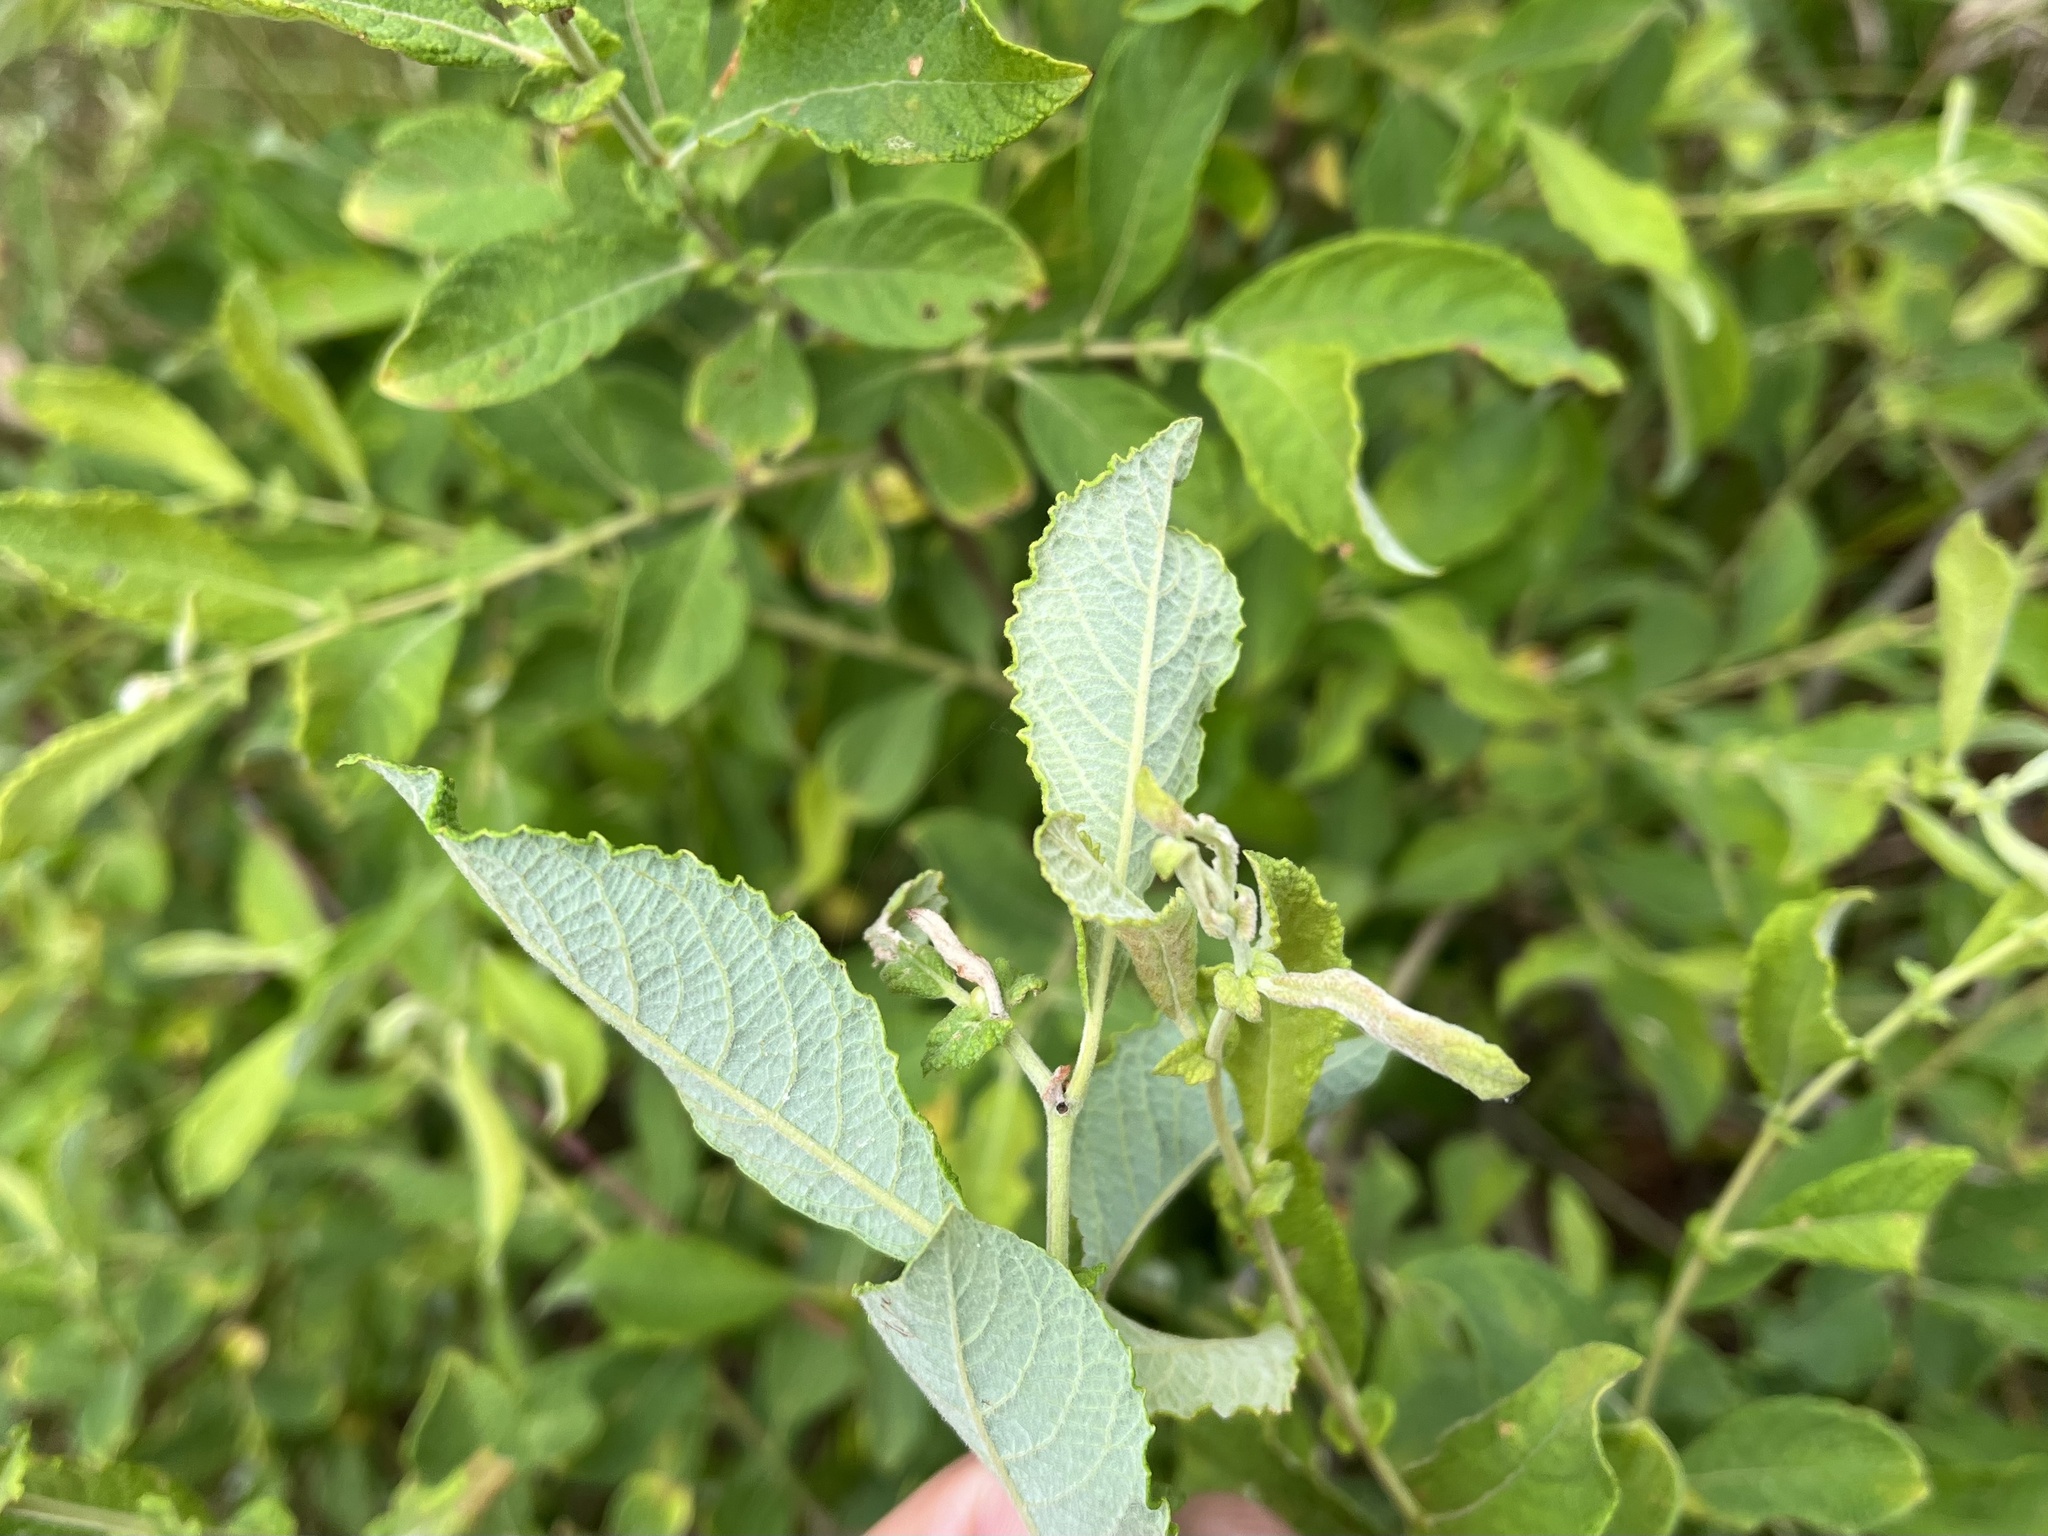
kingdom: Plantae
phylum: Tracheophyta
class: Magnoliopsida
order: Malpighiales
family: Salicaceae
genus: Salix
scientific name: Salix aurita
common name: Eared willow
